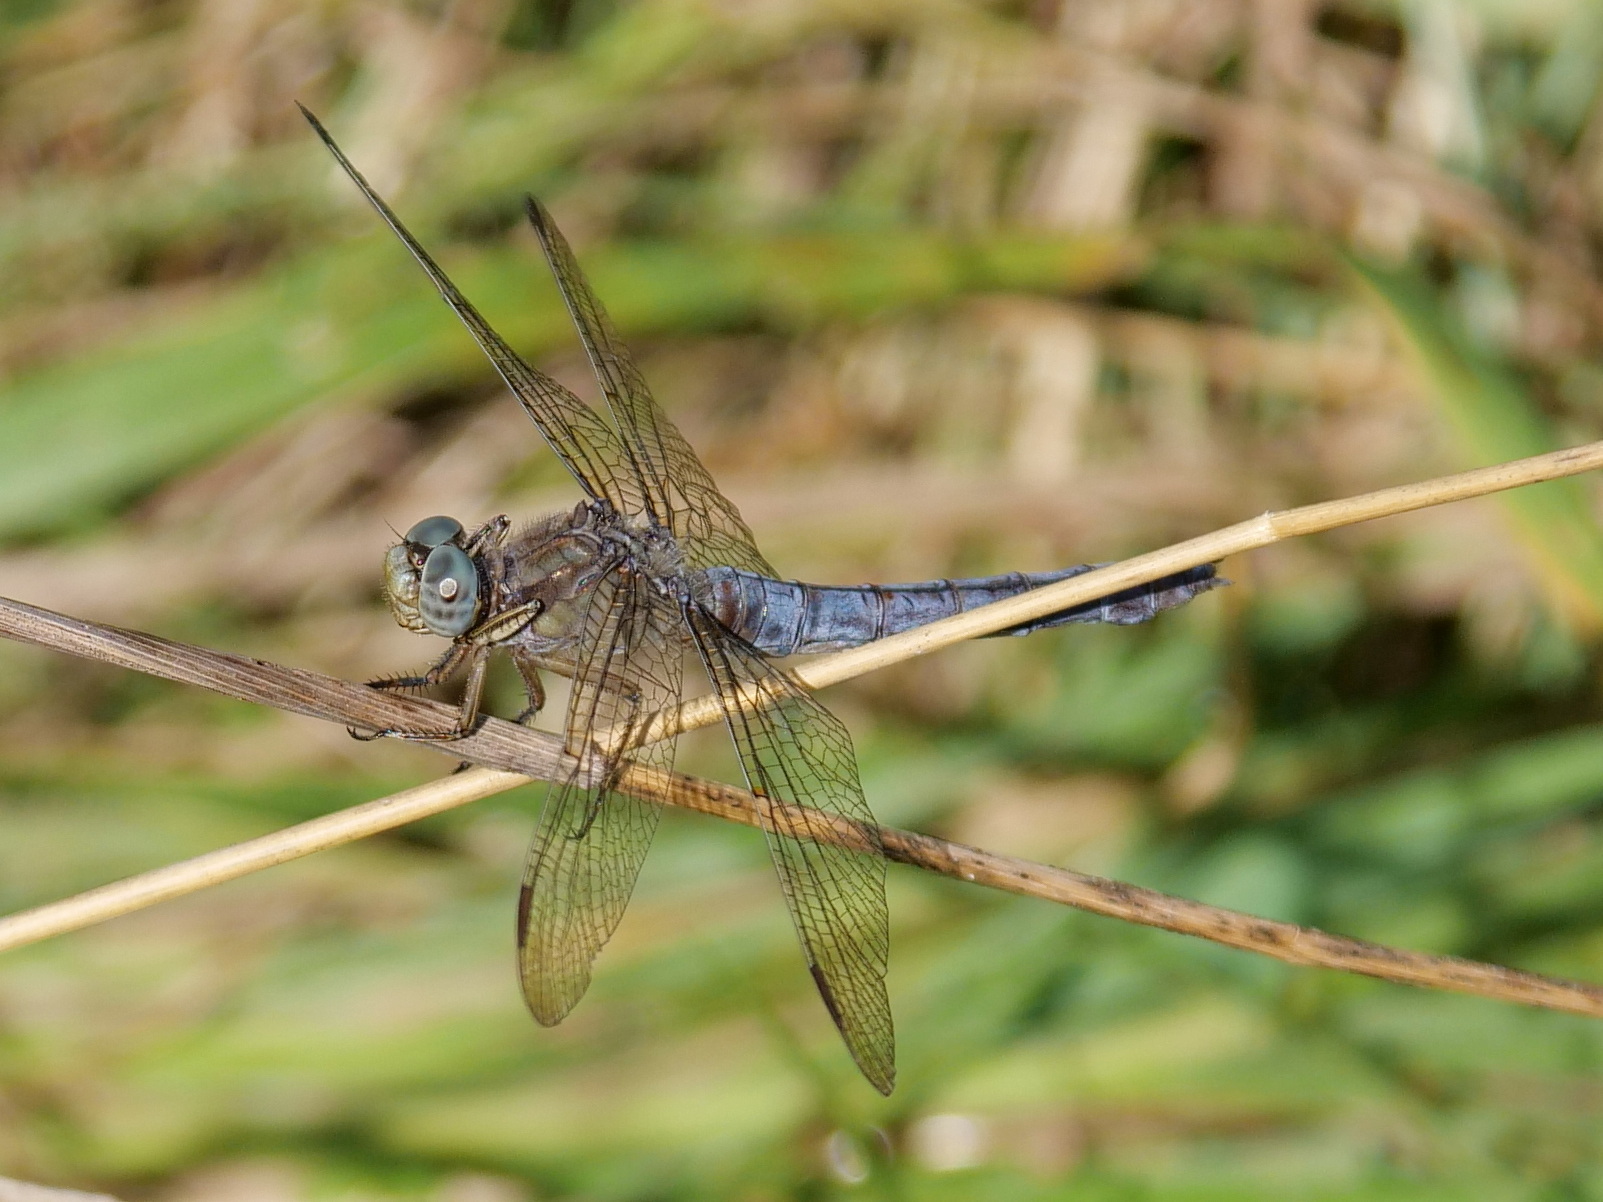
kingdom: Animalia
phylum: Arthropoda
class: Insecta
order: Odonata
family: Libellulidae
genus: Orthetrum
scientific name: Orthetrum coerulescens
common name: Keeled skimmer
